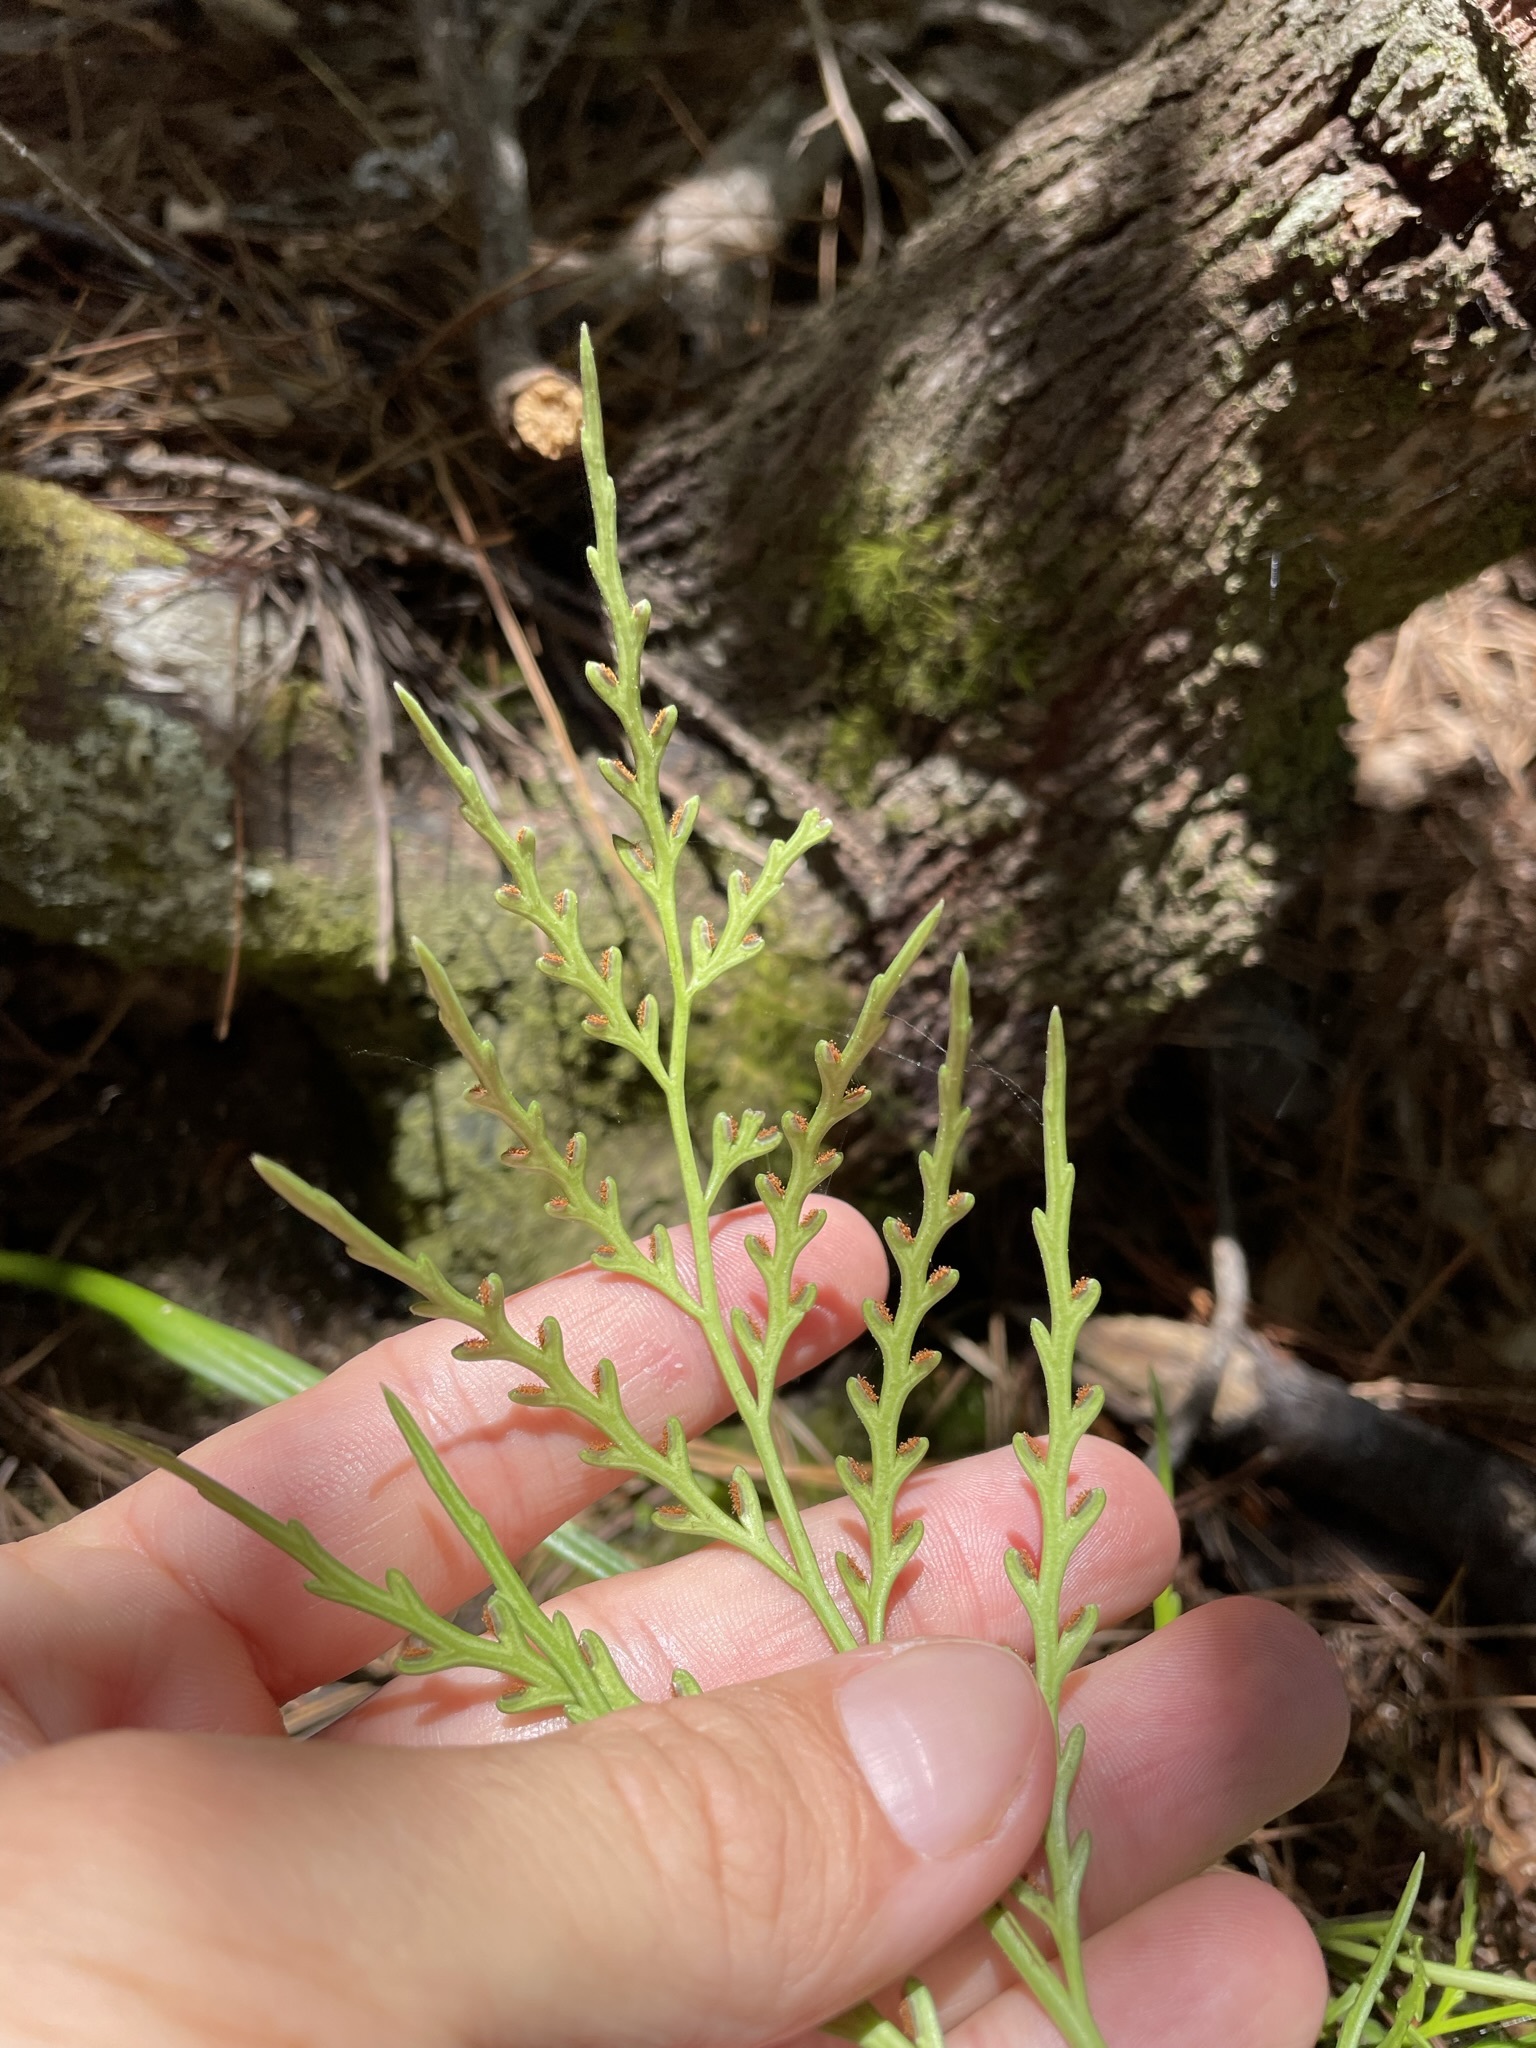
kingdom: Plantae
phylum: Tracheophyta
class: Polypodiopsida
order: Polypodiales
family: Aspleniaceae
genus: Asplenium
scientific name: Asplenium flaccidum
